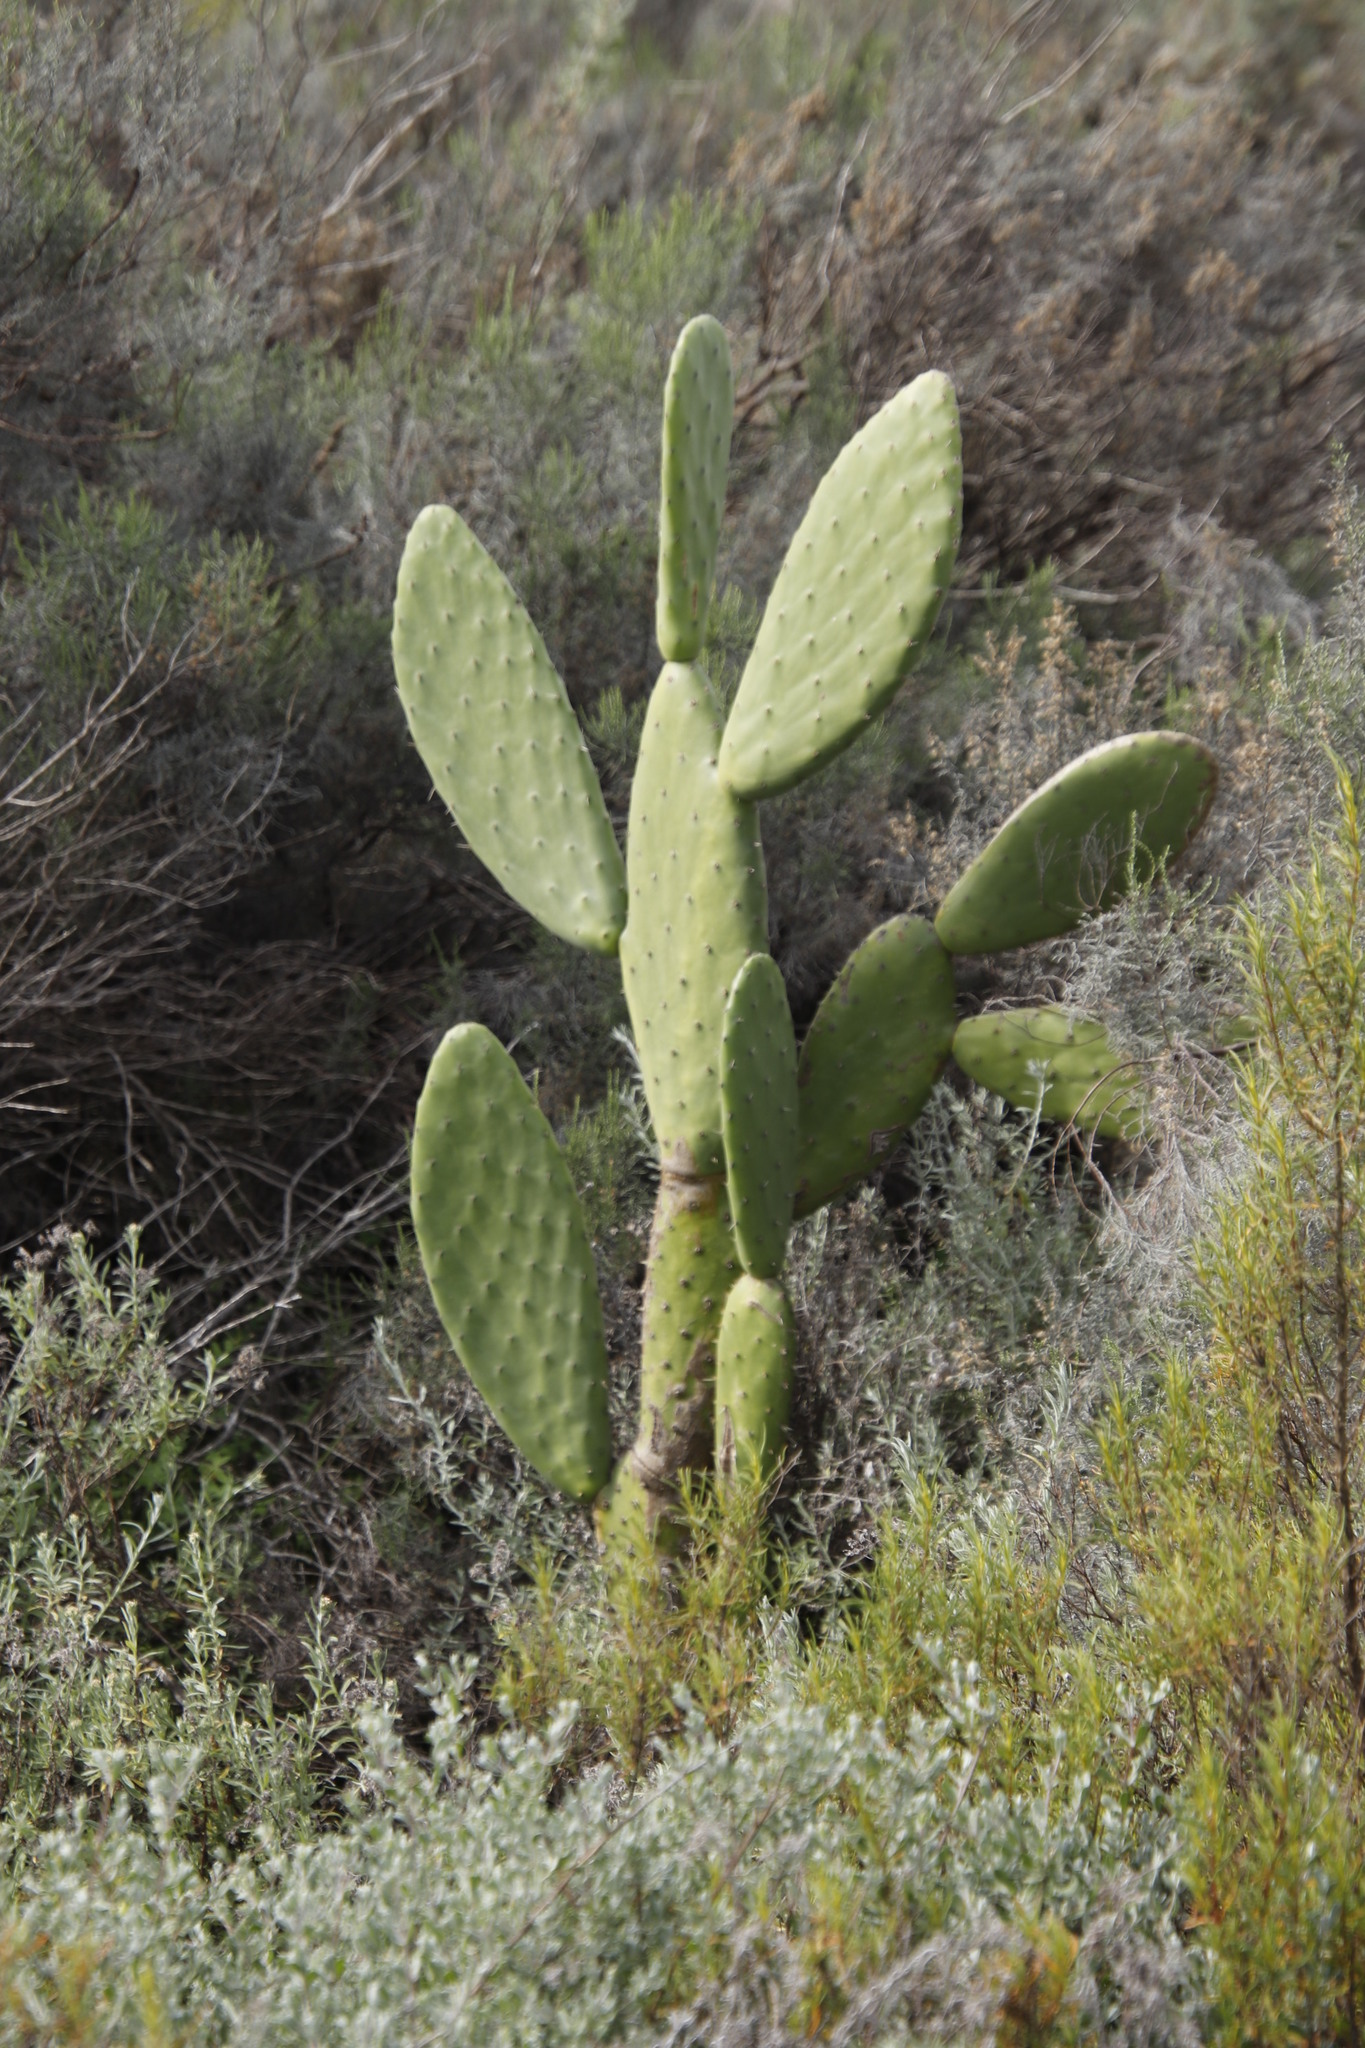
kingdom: Plantae
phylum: Tracheophyta
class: Magnoliopsida
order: Caryophyllales
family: Cactaceae
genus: Opuntia
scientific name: Opuntia ficus-indica
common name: Barbary fig
